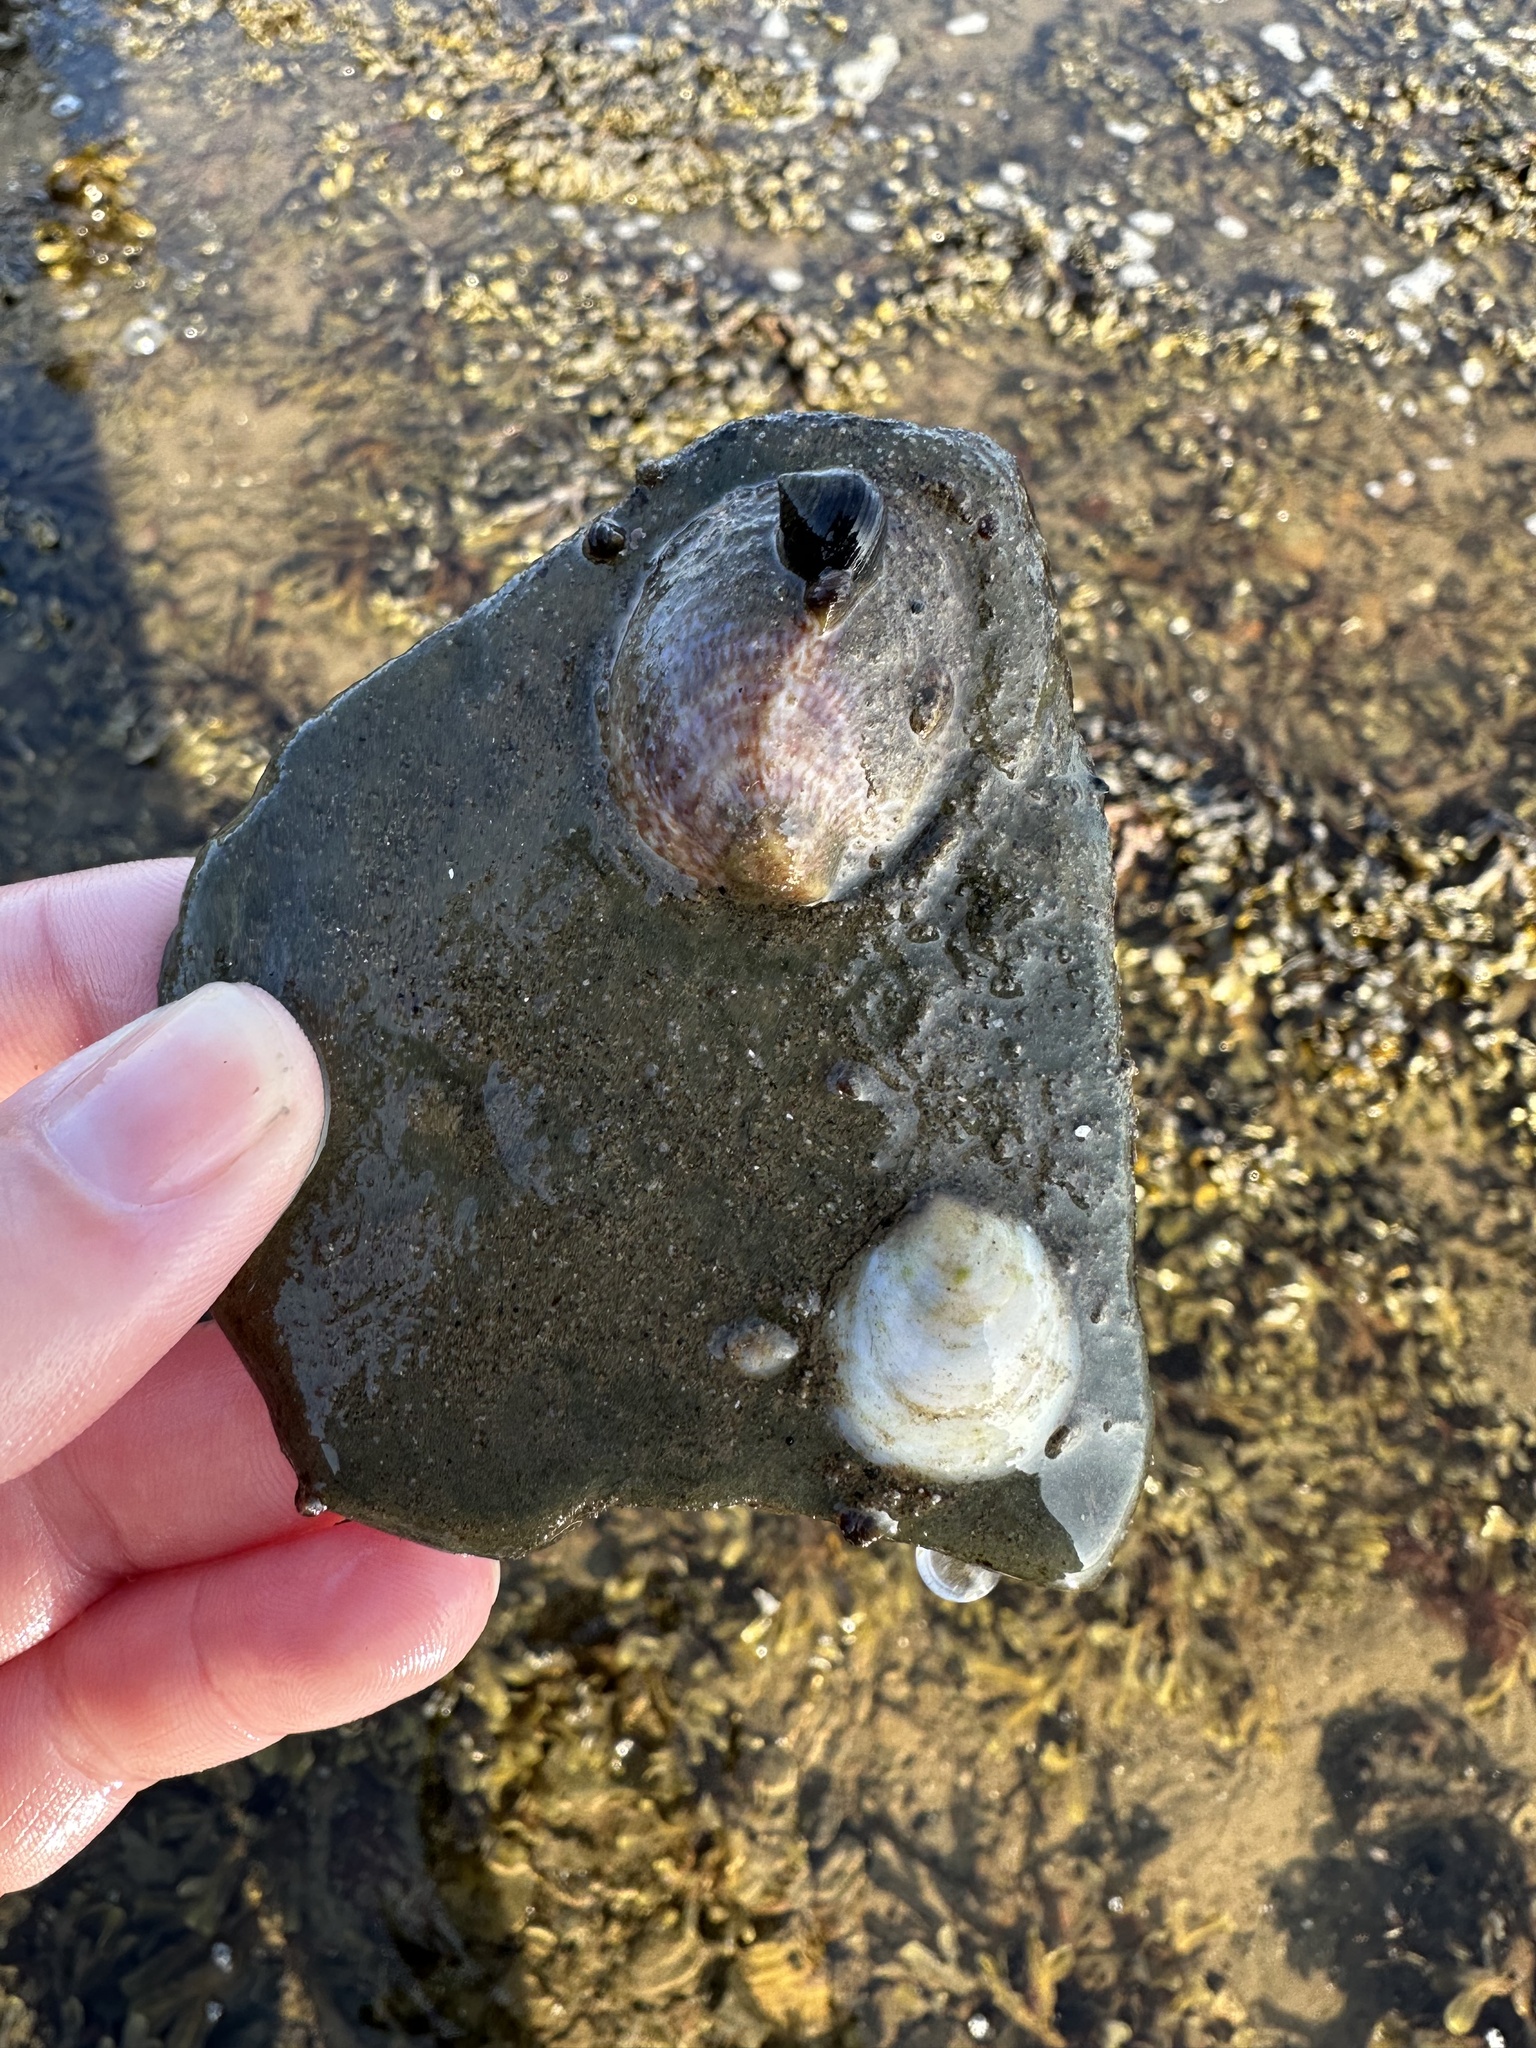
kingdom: Animalia
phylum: Mollusca
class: Gastropoda
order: Littorinimorpha
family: Calyptraeidae
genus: Crepidula
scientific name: Crepidula fornicata
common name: Slipper limpet
